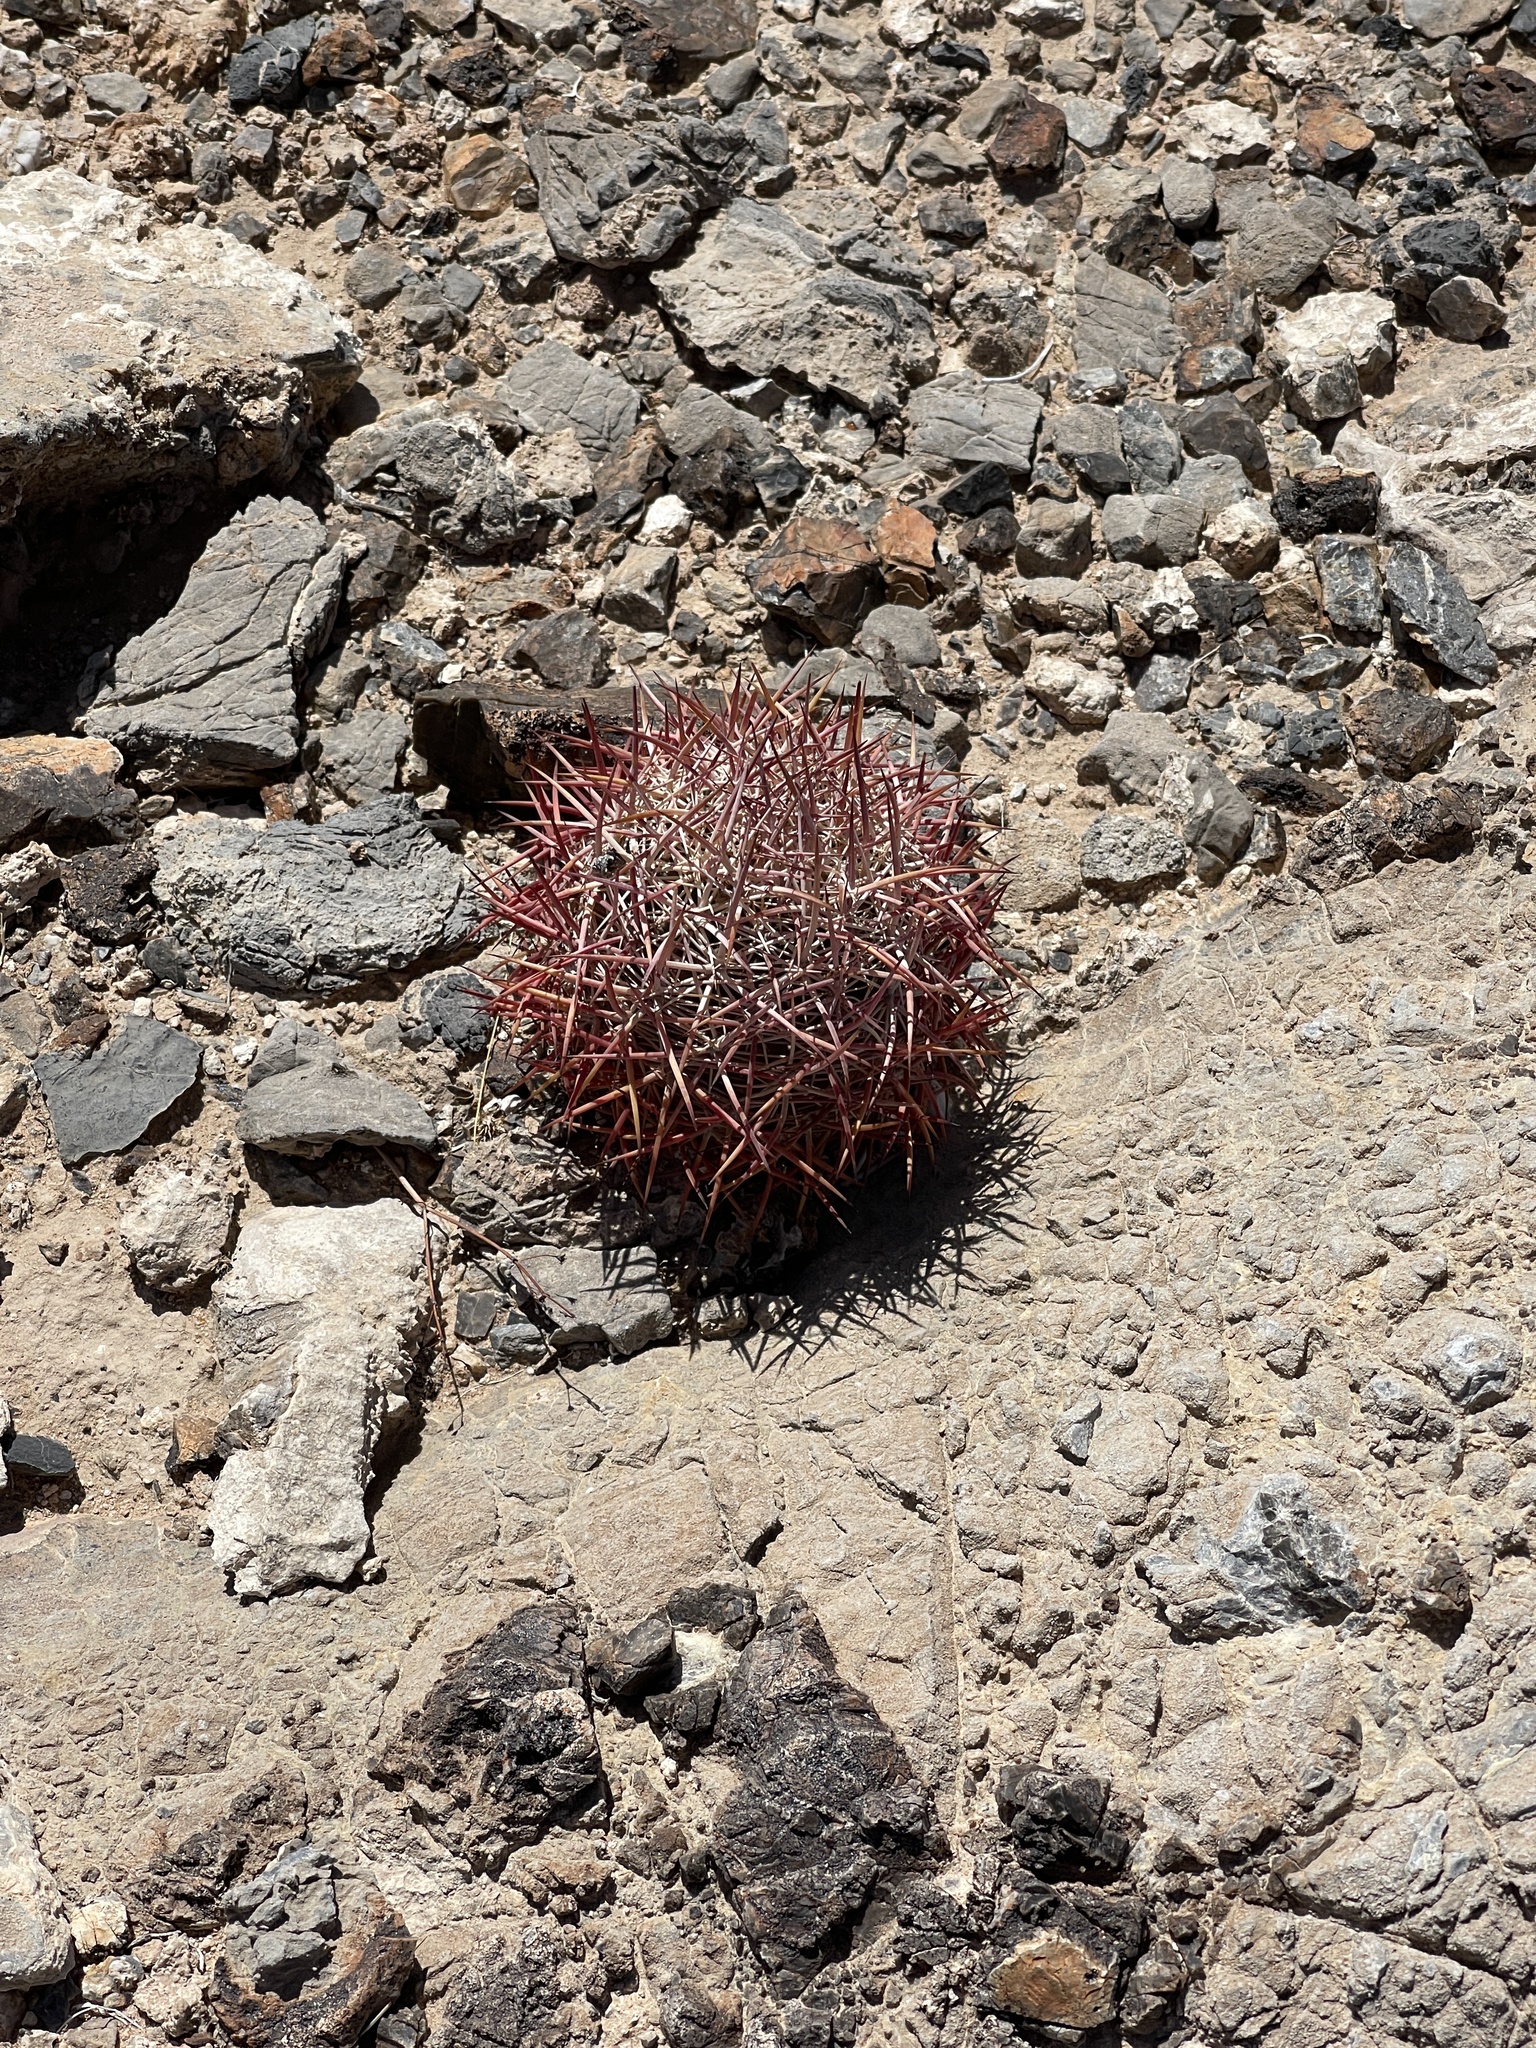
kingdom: Plantae
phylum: Tracheophyta
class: Magnoliopsida
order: Caryophyllales
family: Cactaceae
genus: Sclerocactus
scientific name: Sclerocactus johnsonii
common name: Eight-spine fishhook cactus
